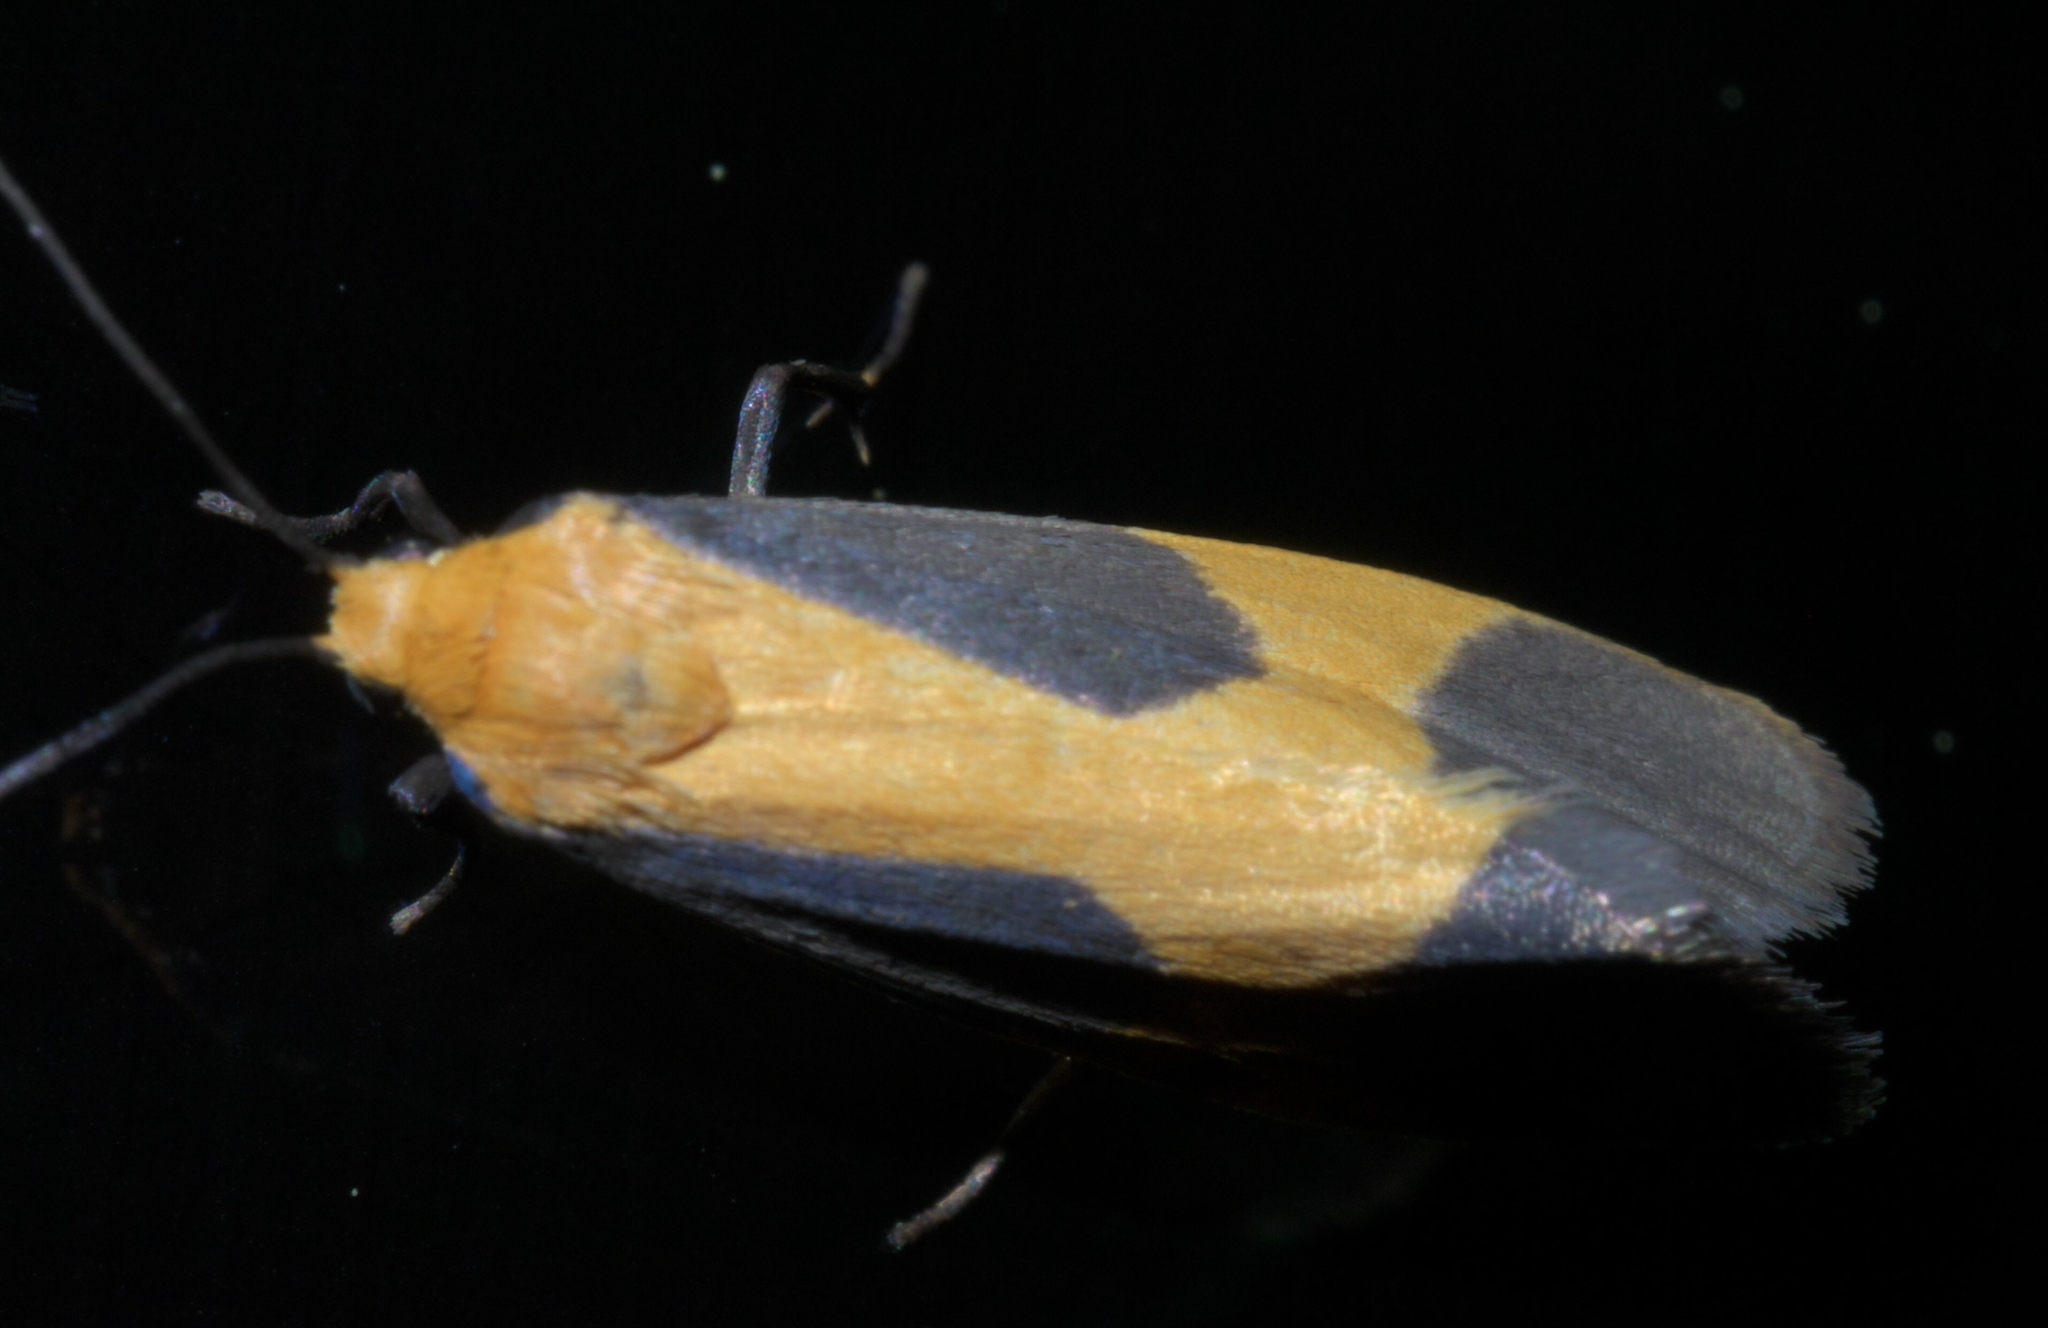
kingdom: Animalia
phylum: Arthropoda
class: Insecta
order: Lepidoptera
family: Erebidae
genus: Cisthene
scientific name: Cisthene picta
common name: Pictured lichen moth
